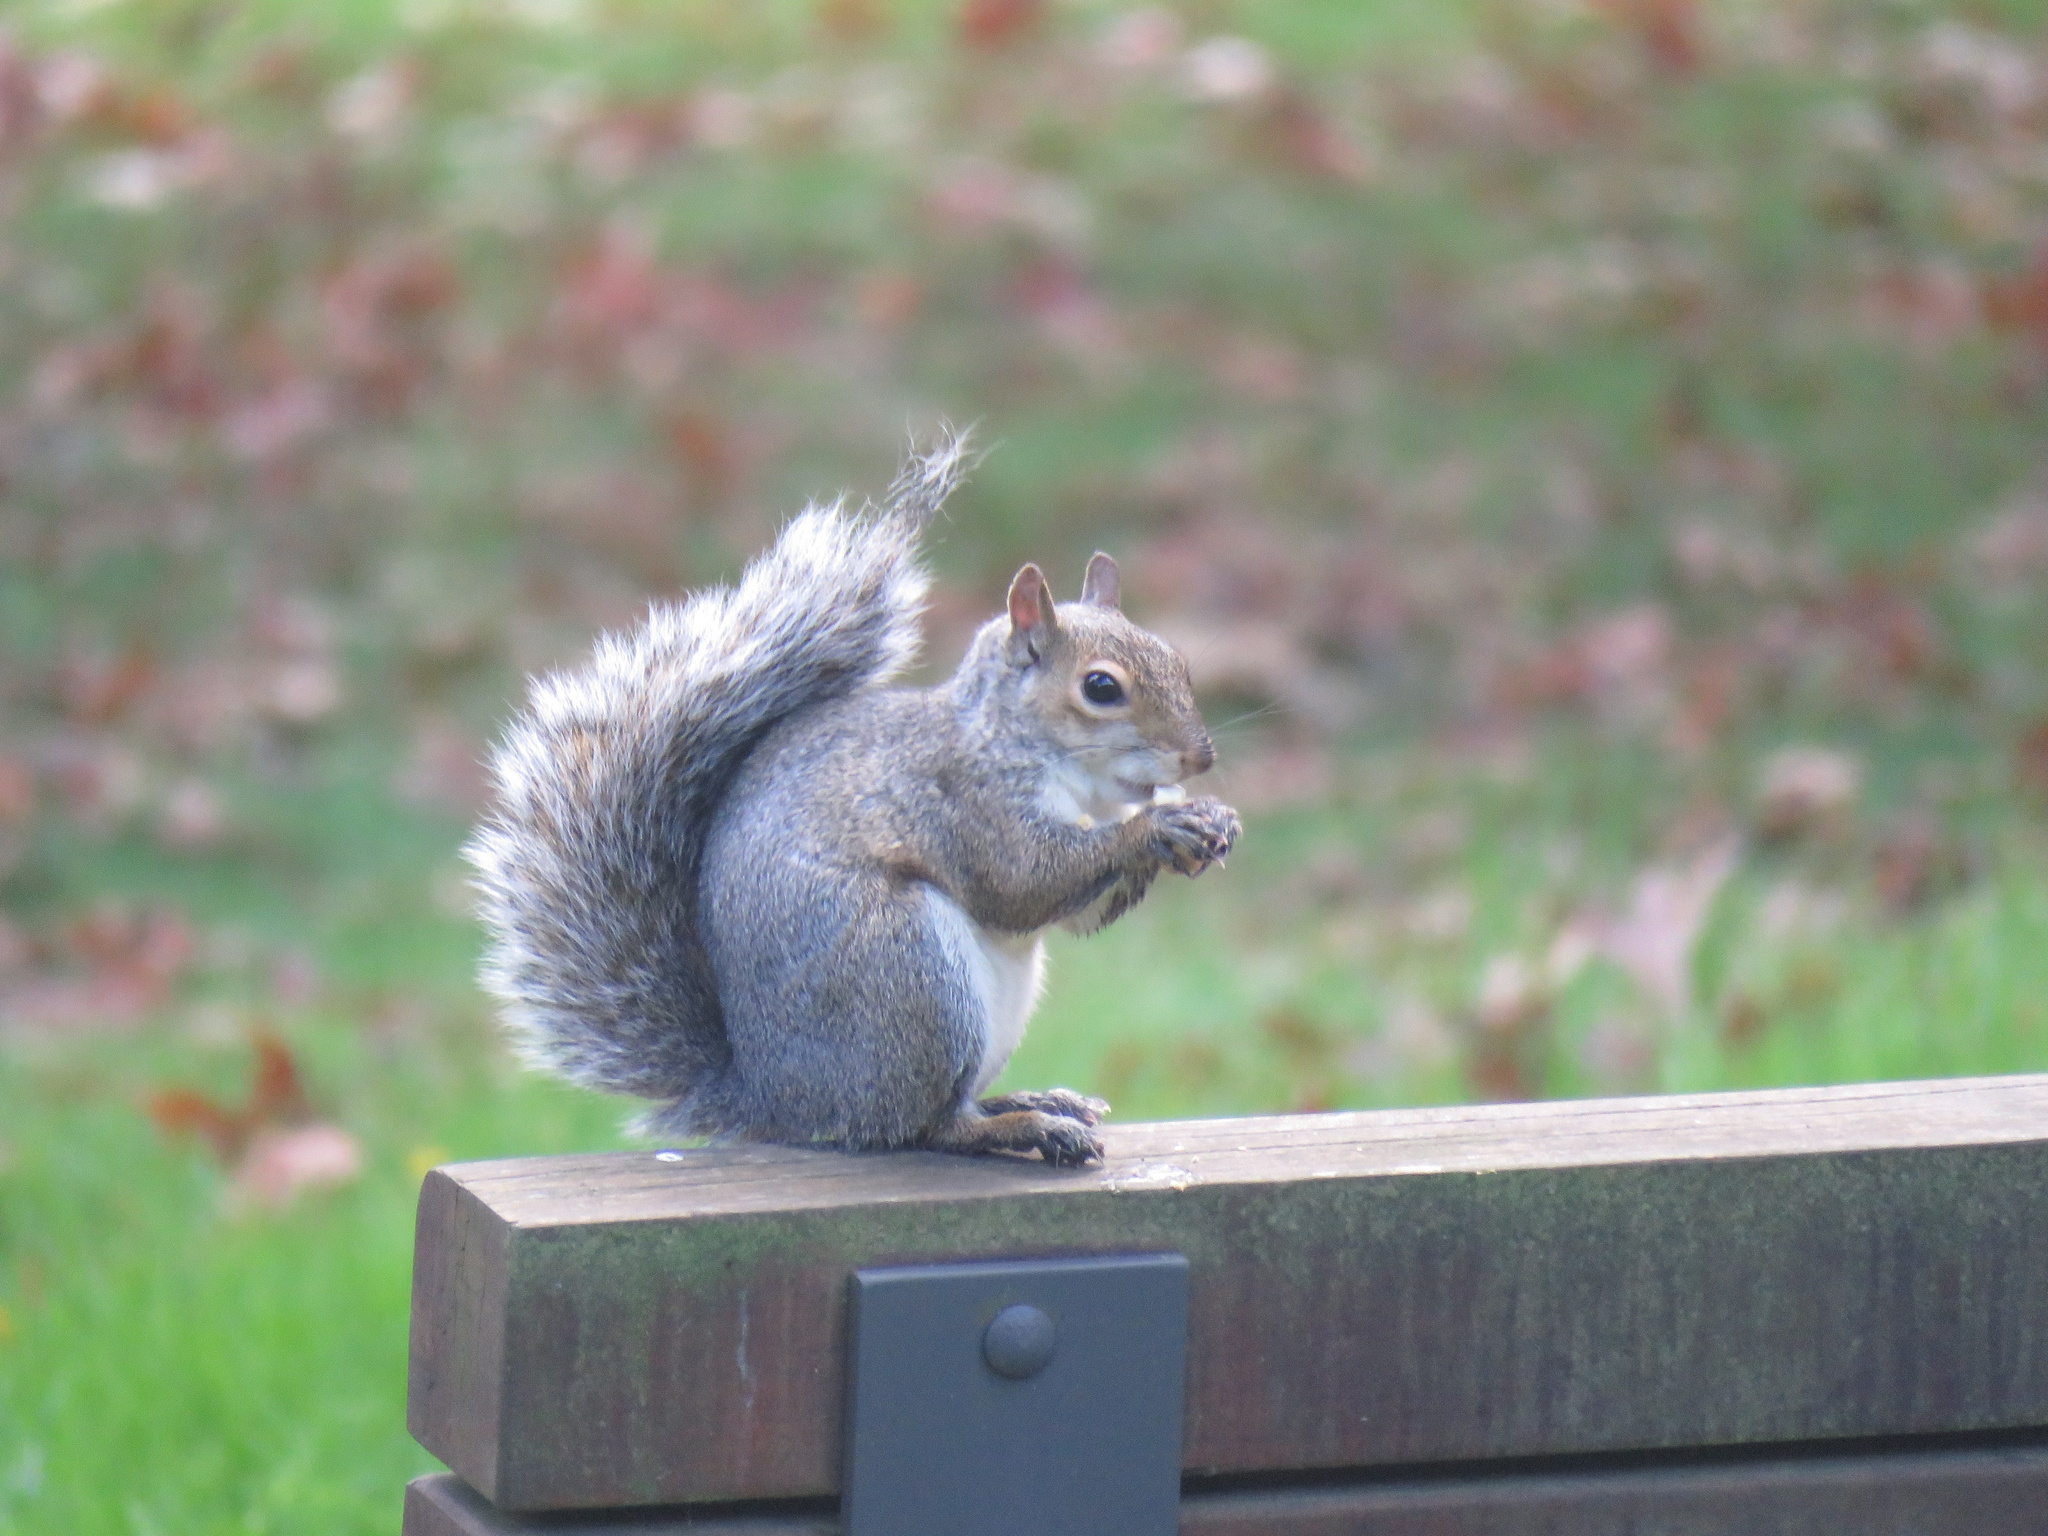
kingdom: Animalia
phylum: Chordata
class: Mammalia
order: Rodentia
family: Sciuridae
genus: Sciurus
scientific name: Sciurus carolinensis
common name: Eastern gray squirrel
